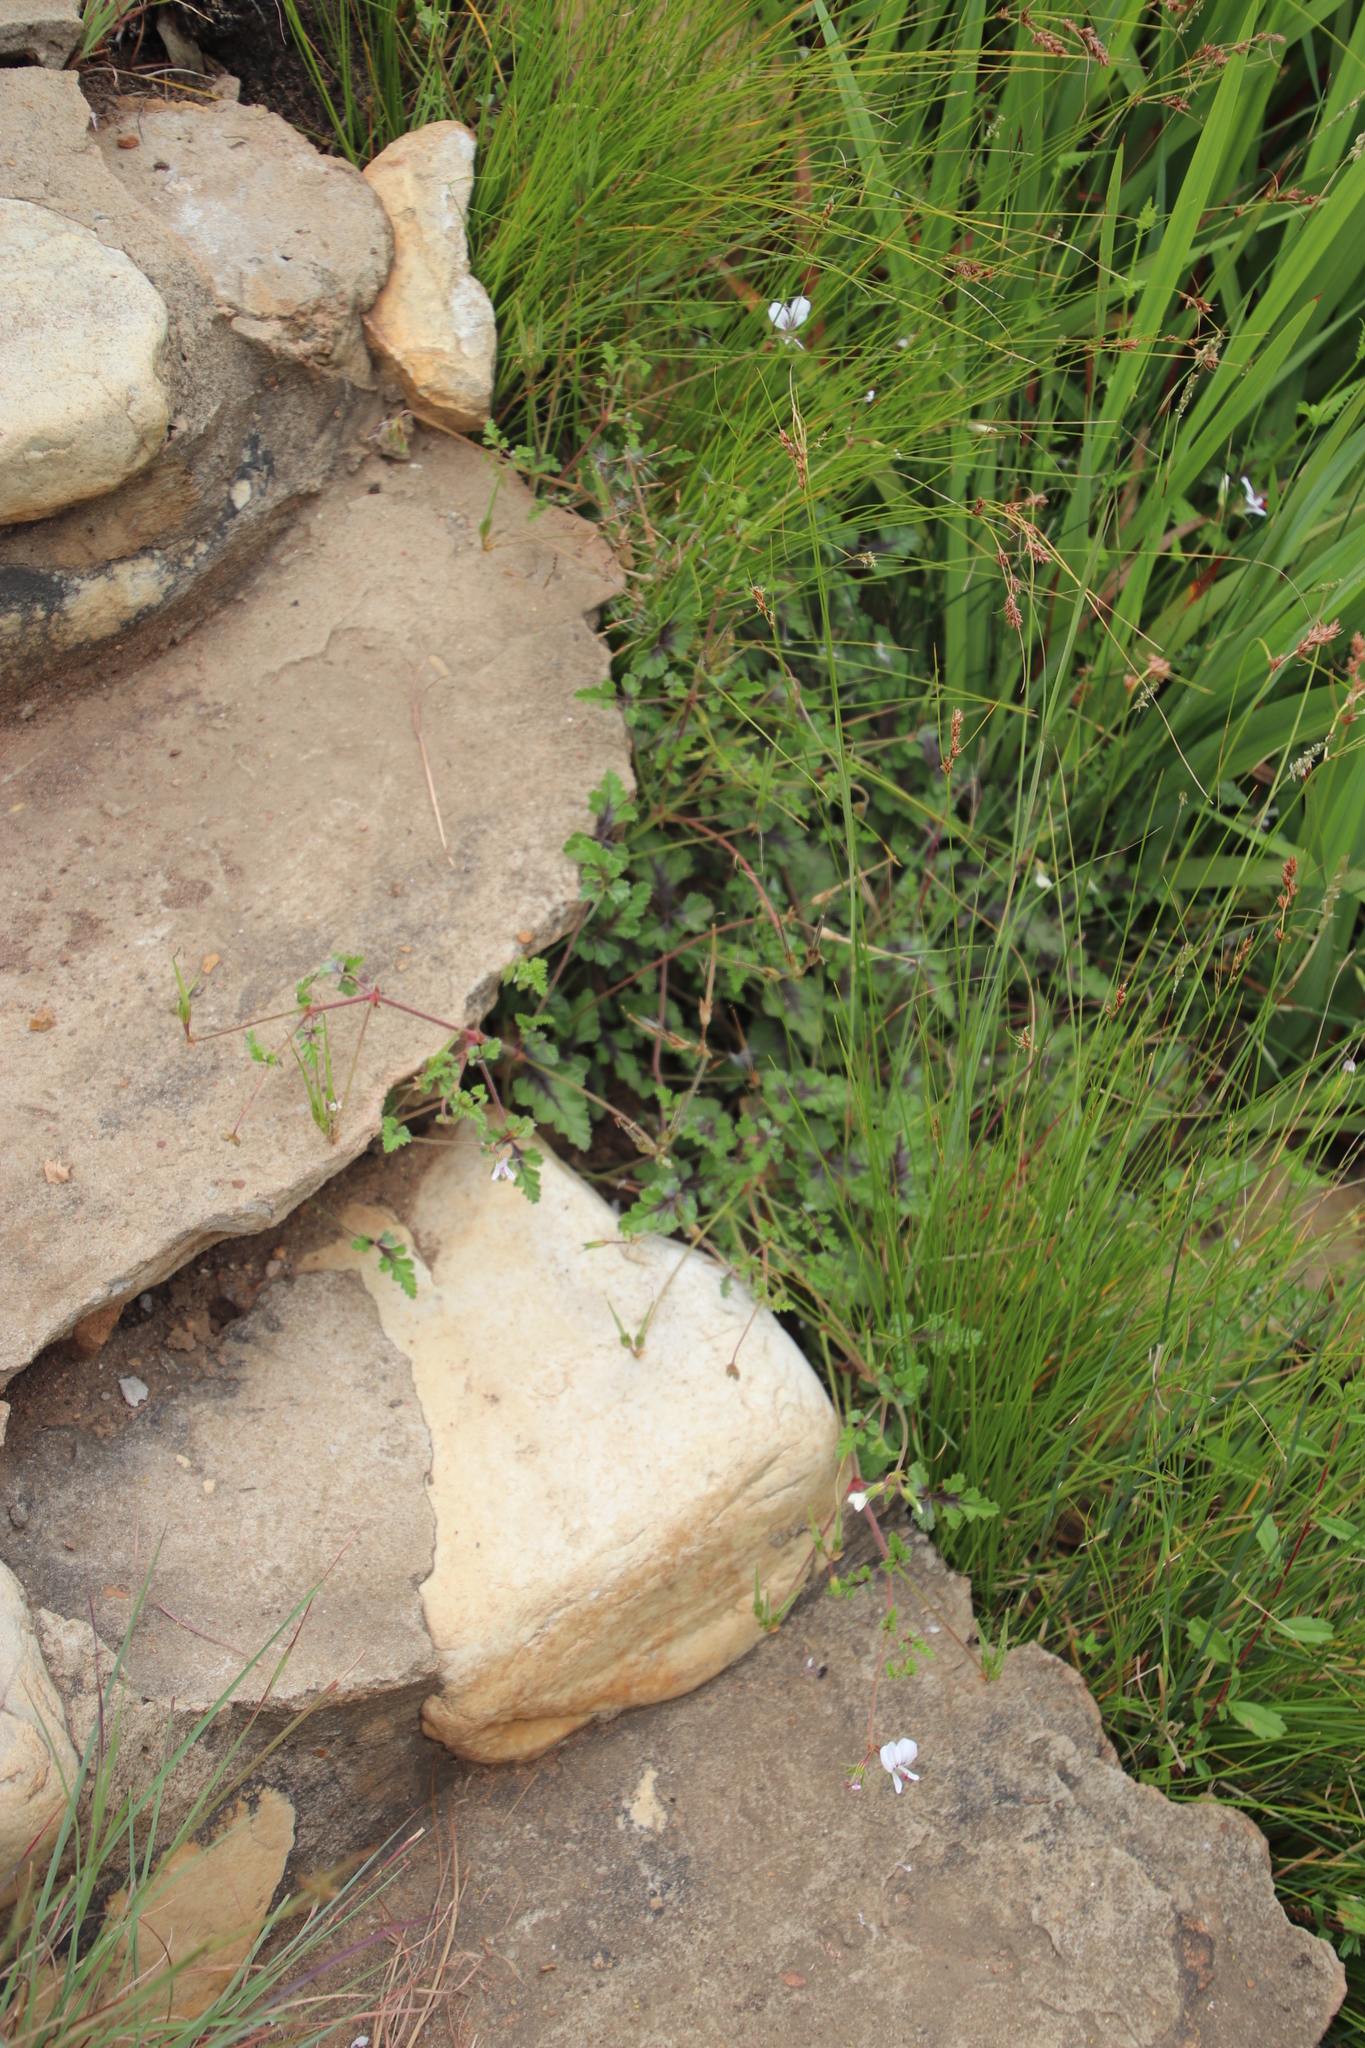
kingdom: Plantae
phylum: Tracheophyta
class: Magnoliopsida
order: Geraniales
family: Geraniaceae
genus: Pelargonium
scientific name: Pelargonium candicans
